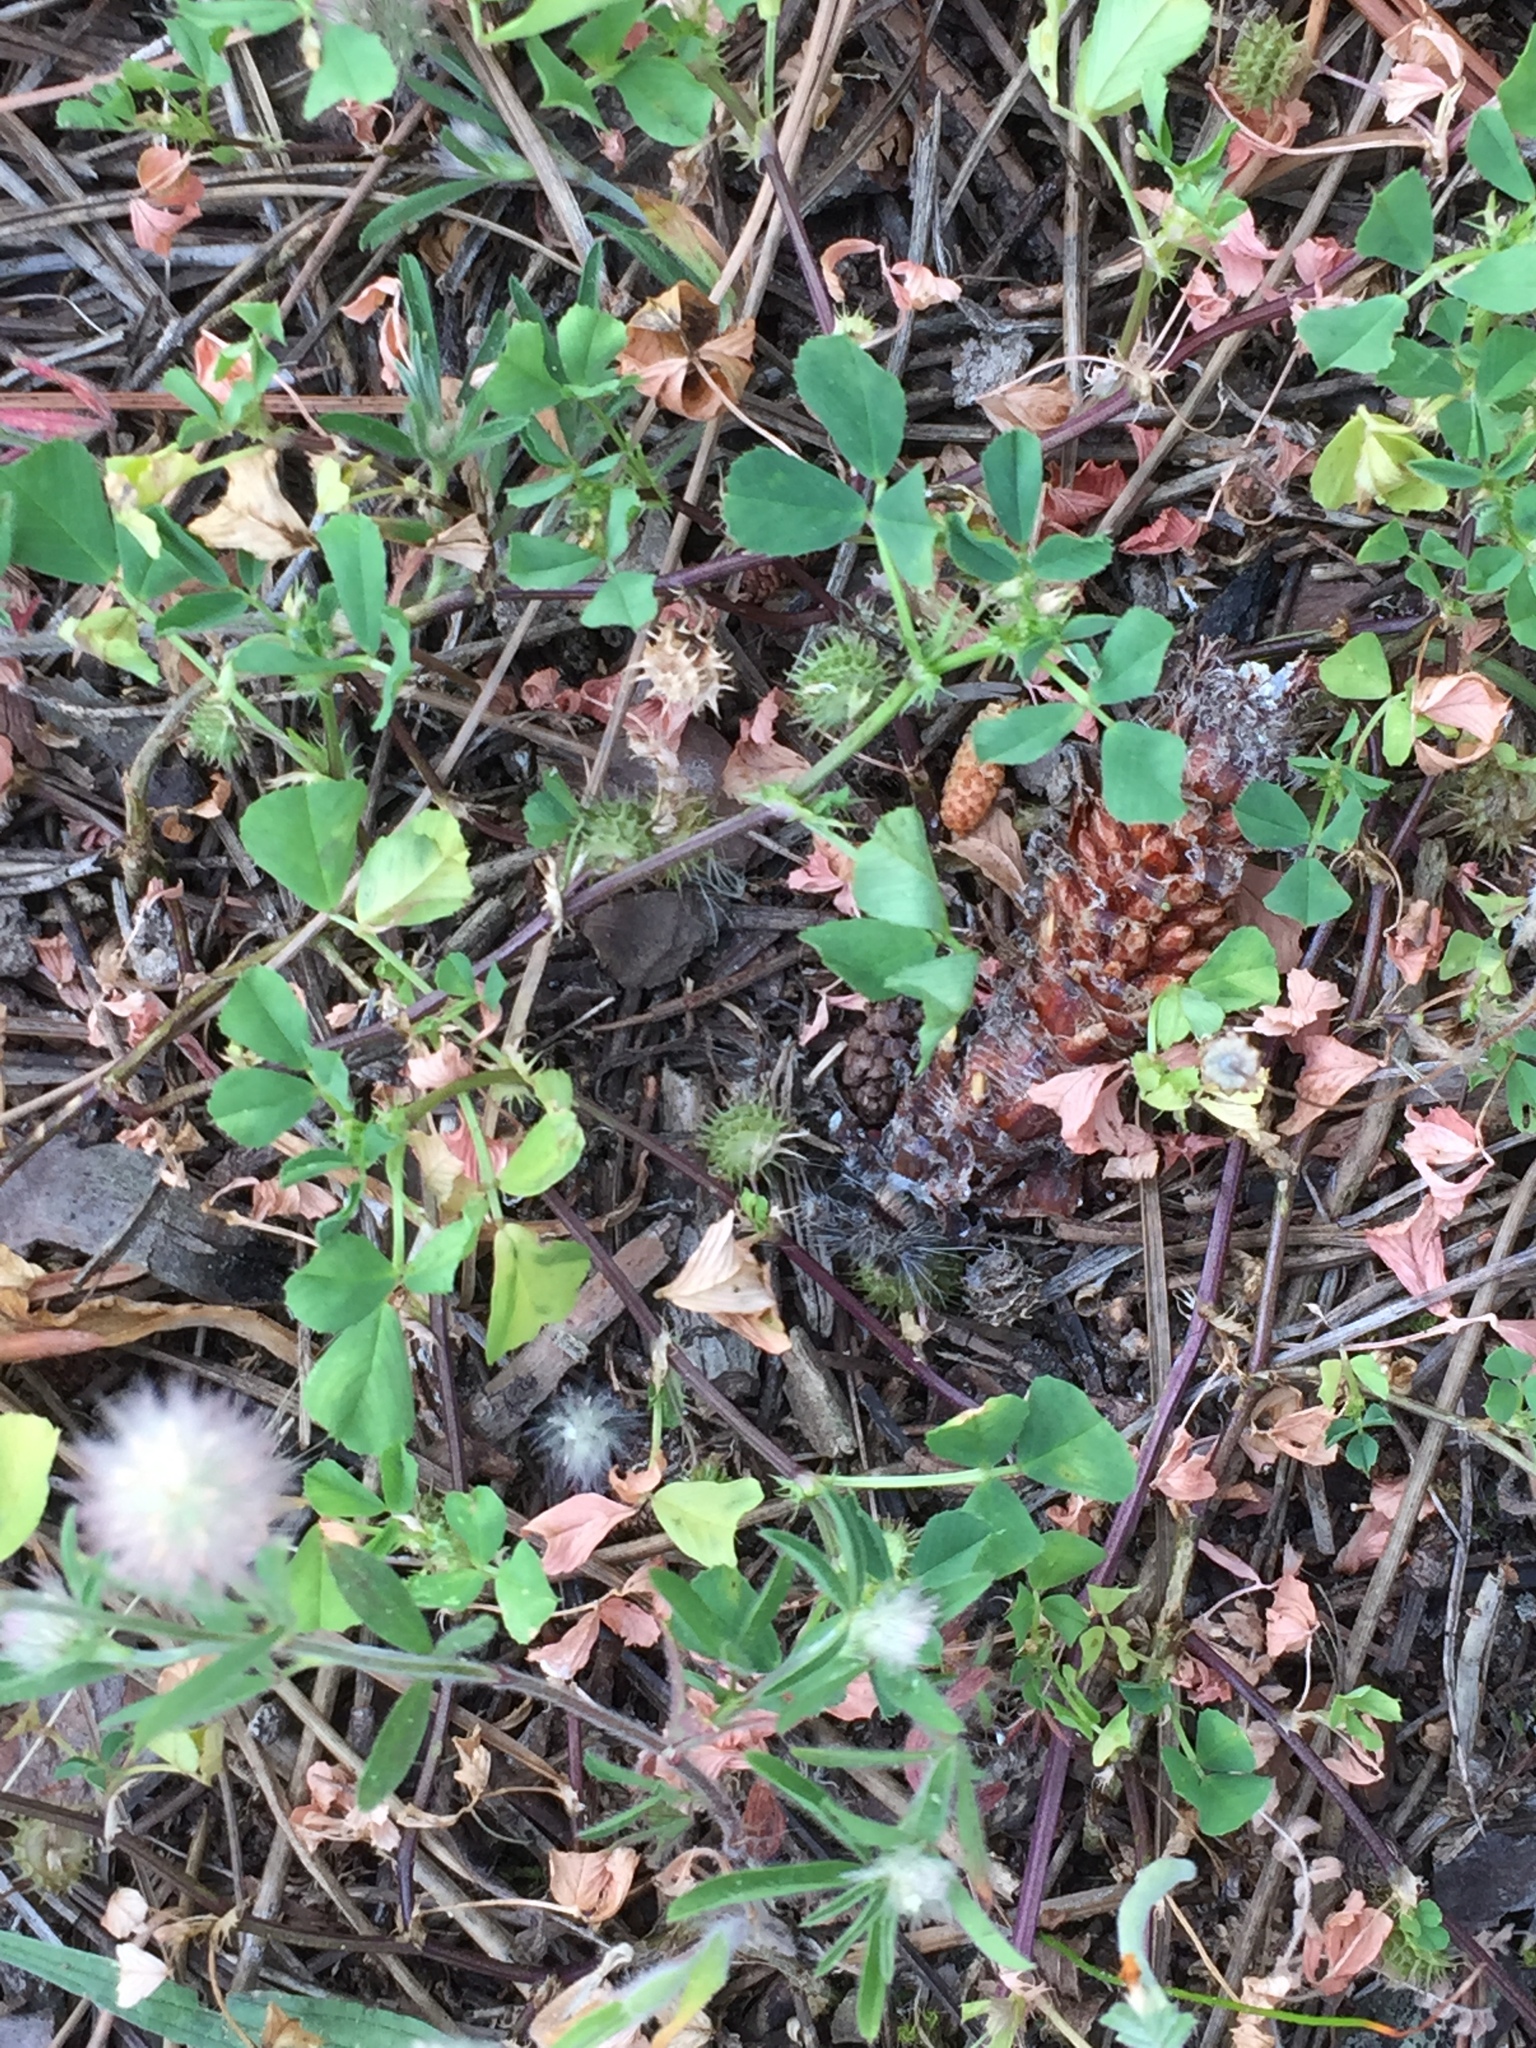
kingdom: Plantae
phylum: Tracheophyta
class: Magnoliopsida
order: Fabales
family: Fabaceae
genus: Medicago
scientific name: Medicago polymorpha
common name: Burclover
